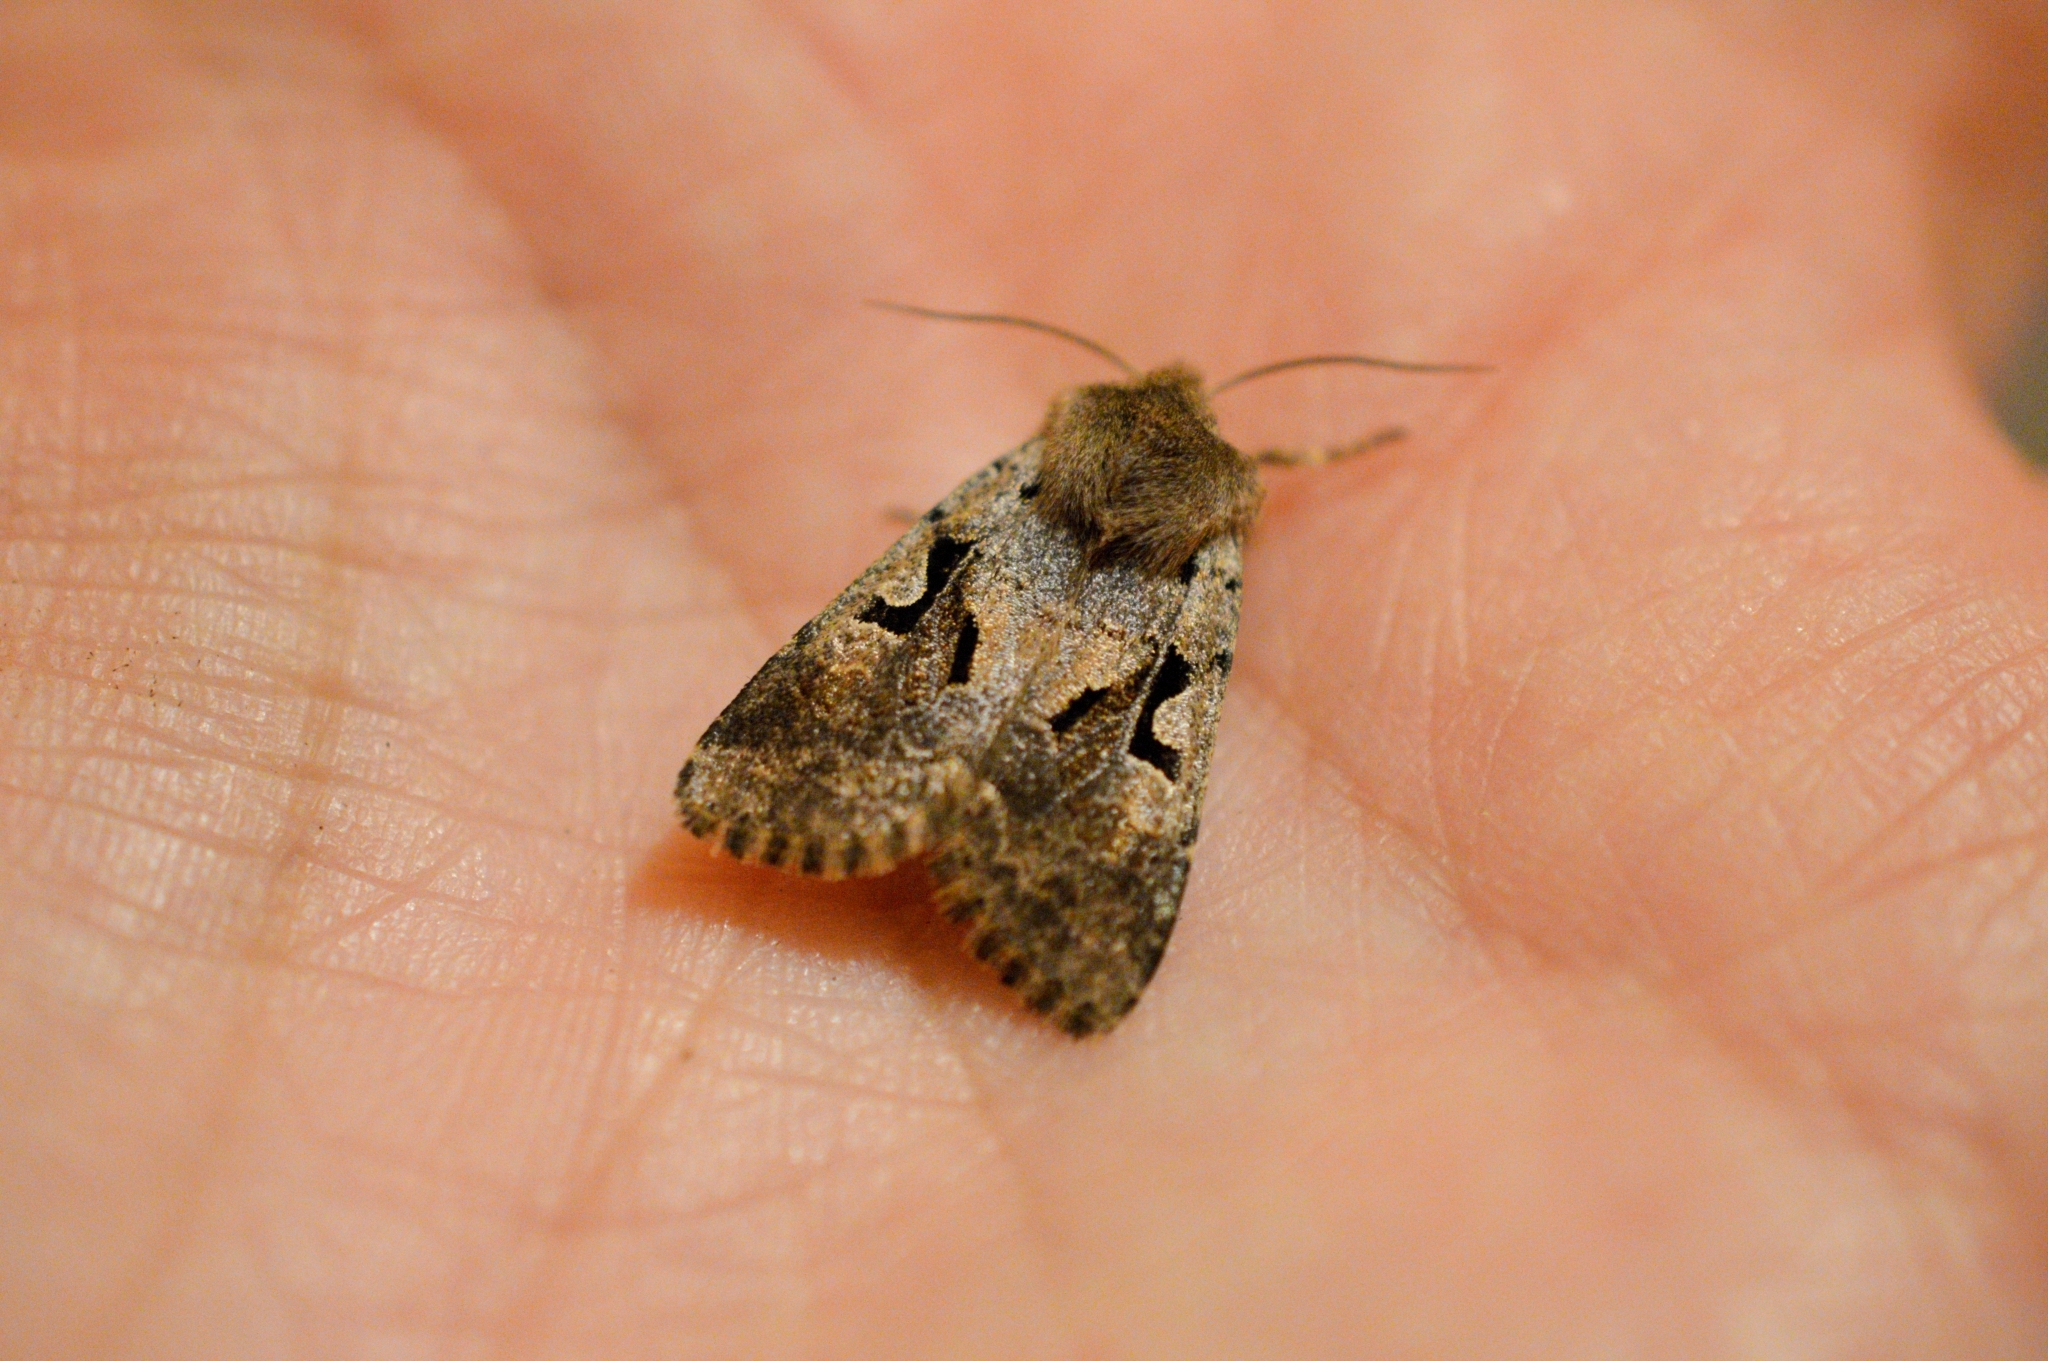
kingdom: Animalia
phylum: Arthropoda
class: Insecta
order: Lepidoptera
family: Noctuidae
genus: Orthosia
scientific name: Orthosia gothica
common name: Hebrew character
